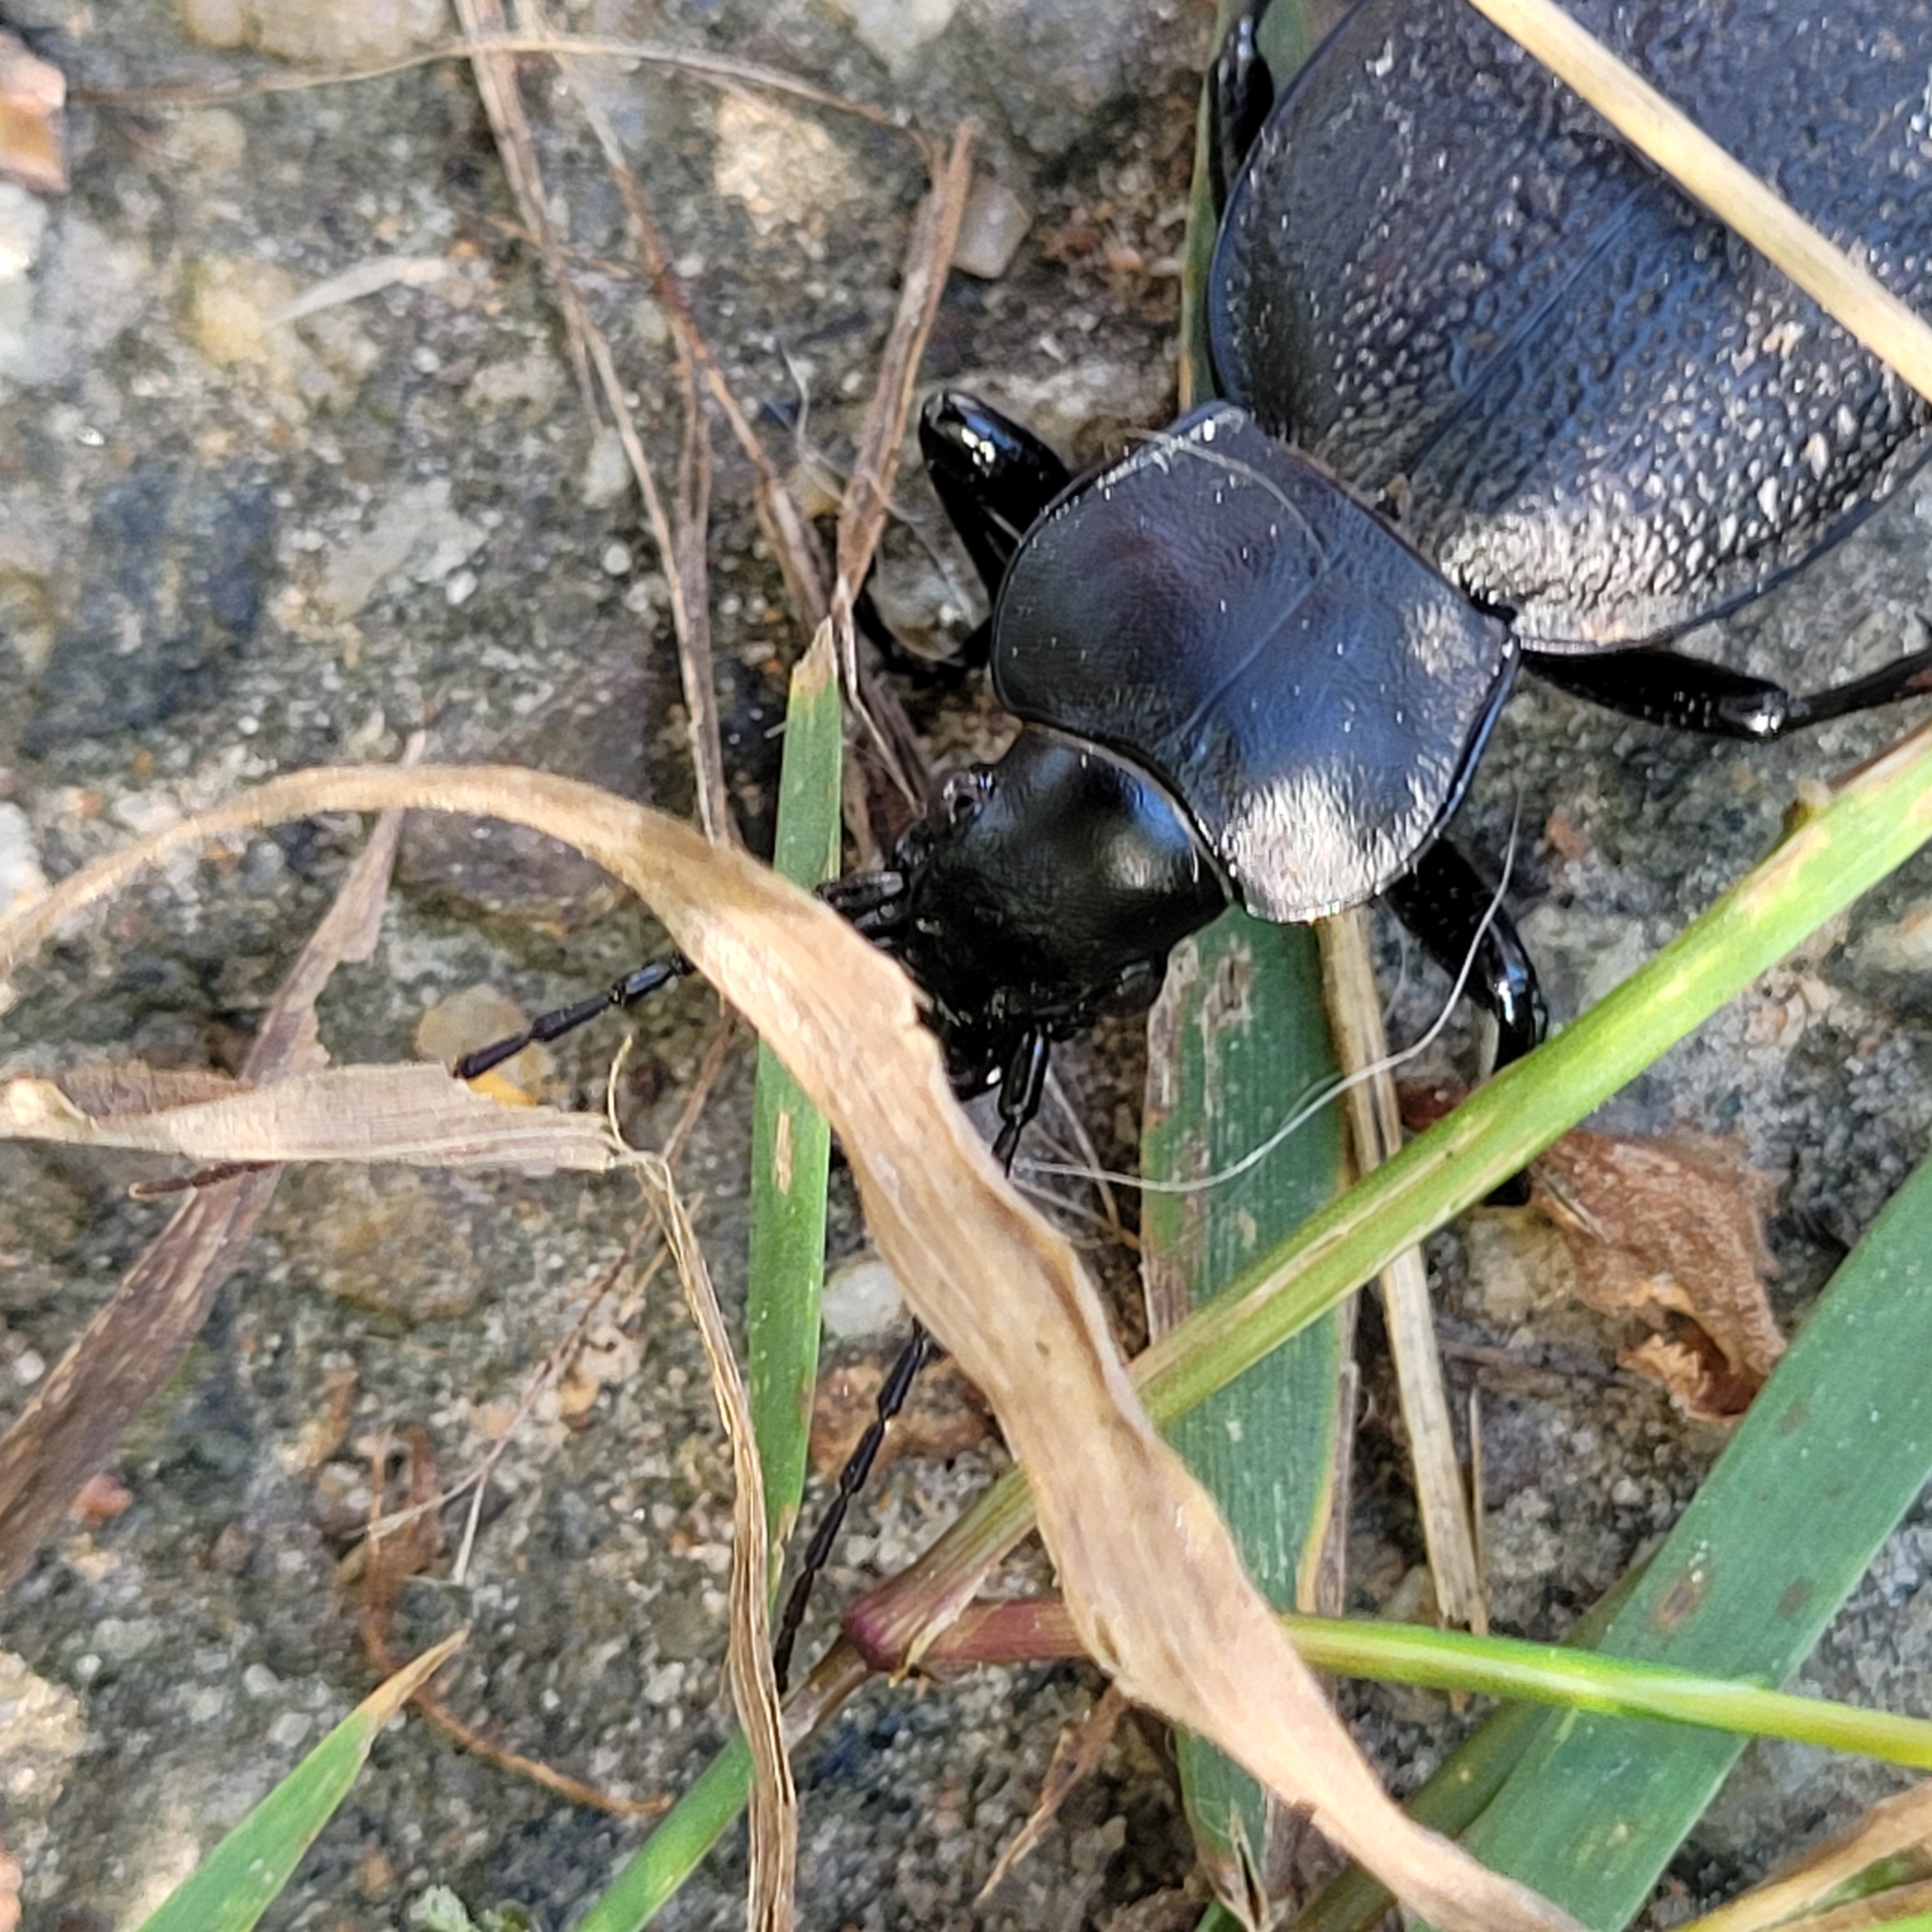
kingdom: Animalia
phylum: Arthropoda
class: Insecta
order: Coleoptera
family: Carabidae
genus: Carabus
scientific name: Carabus coriaceus
